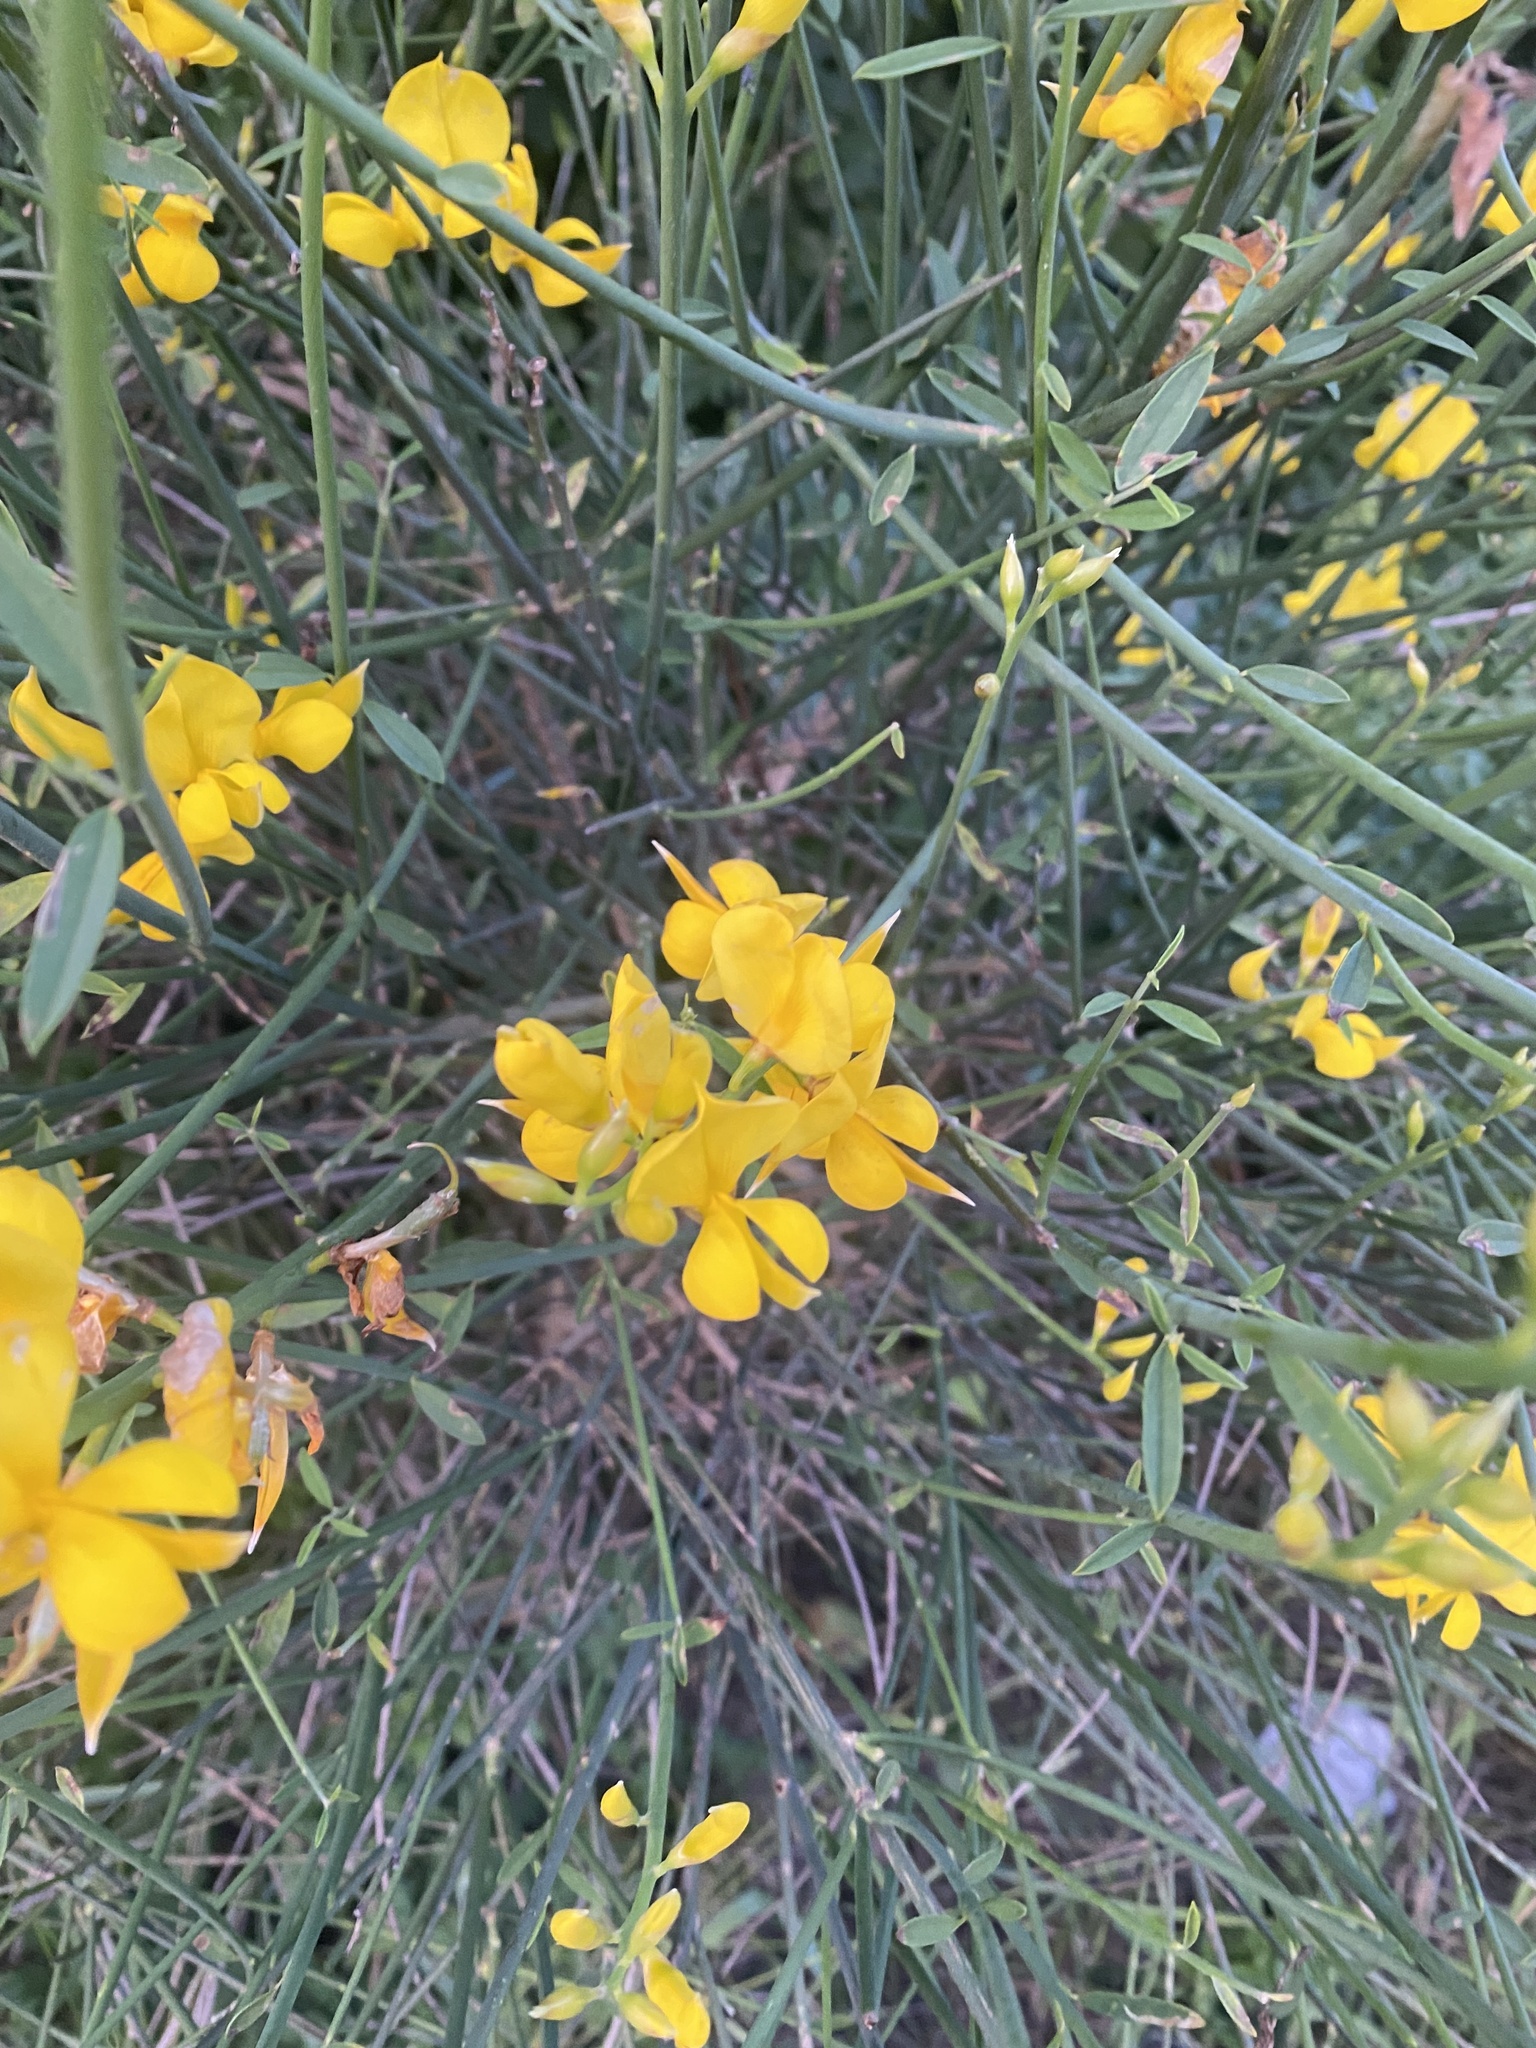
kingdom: Plantae
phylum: Tracheophyta
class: Magnoliopsida
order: Fabales
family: Fabaceae
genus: Spartium
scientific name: Spartium junceum
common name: Spanish broom
